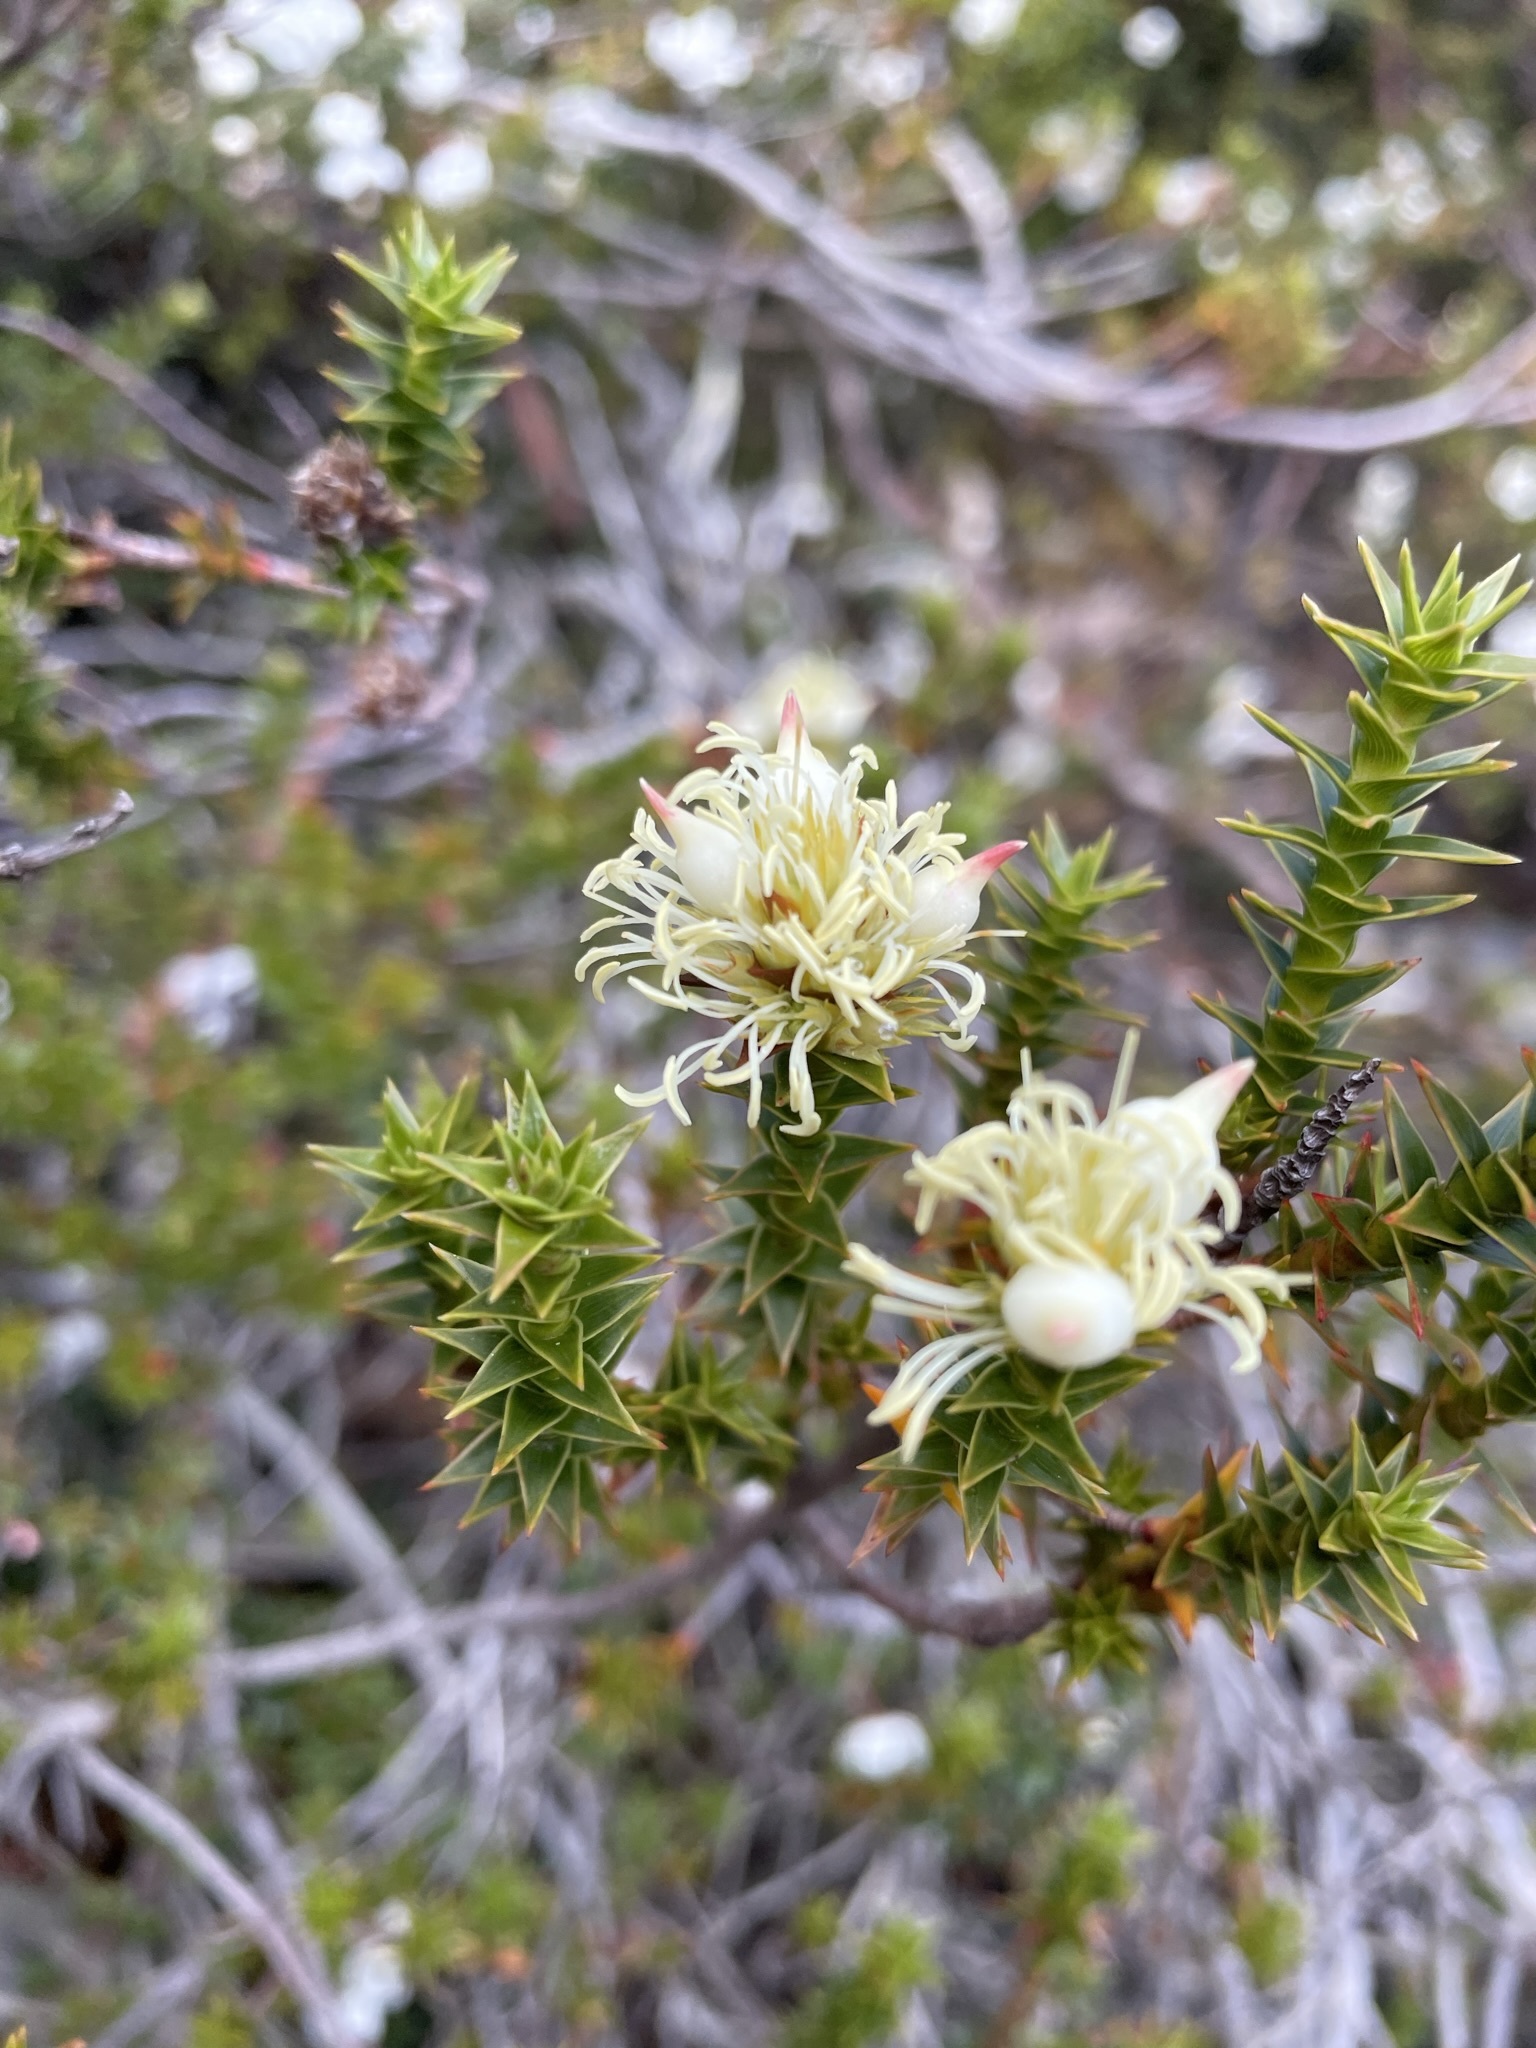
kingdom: Plantae
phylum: Tracheophyta
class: Magnoliopsida
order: Ericales
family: Ericaceae
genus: Dracophyllum
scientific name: Dracophyllum sprengelioides
